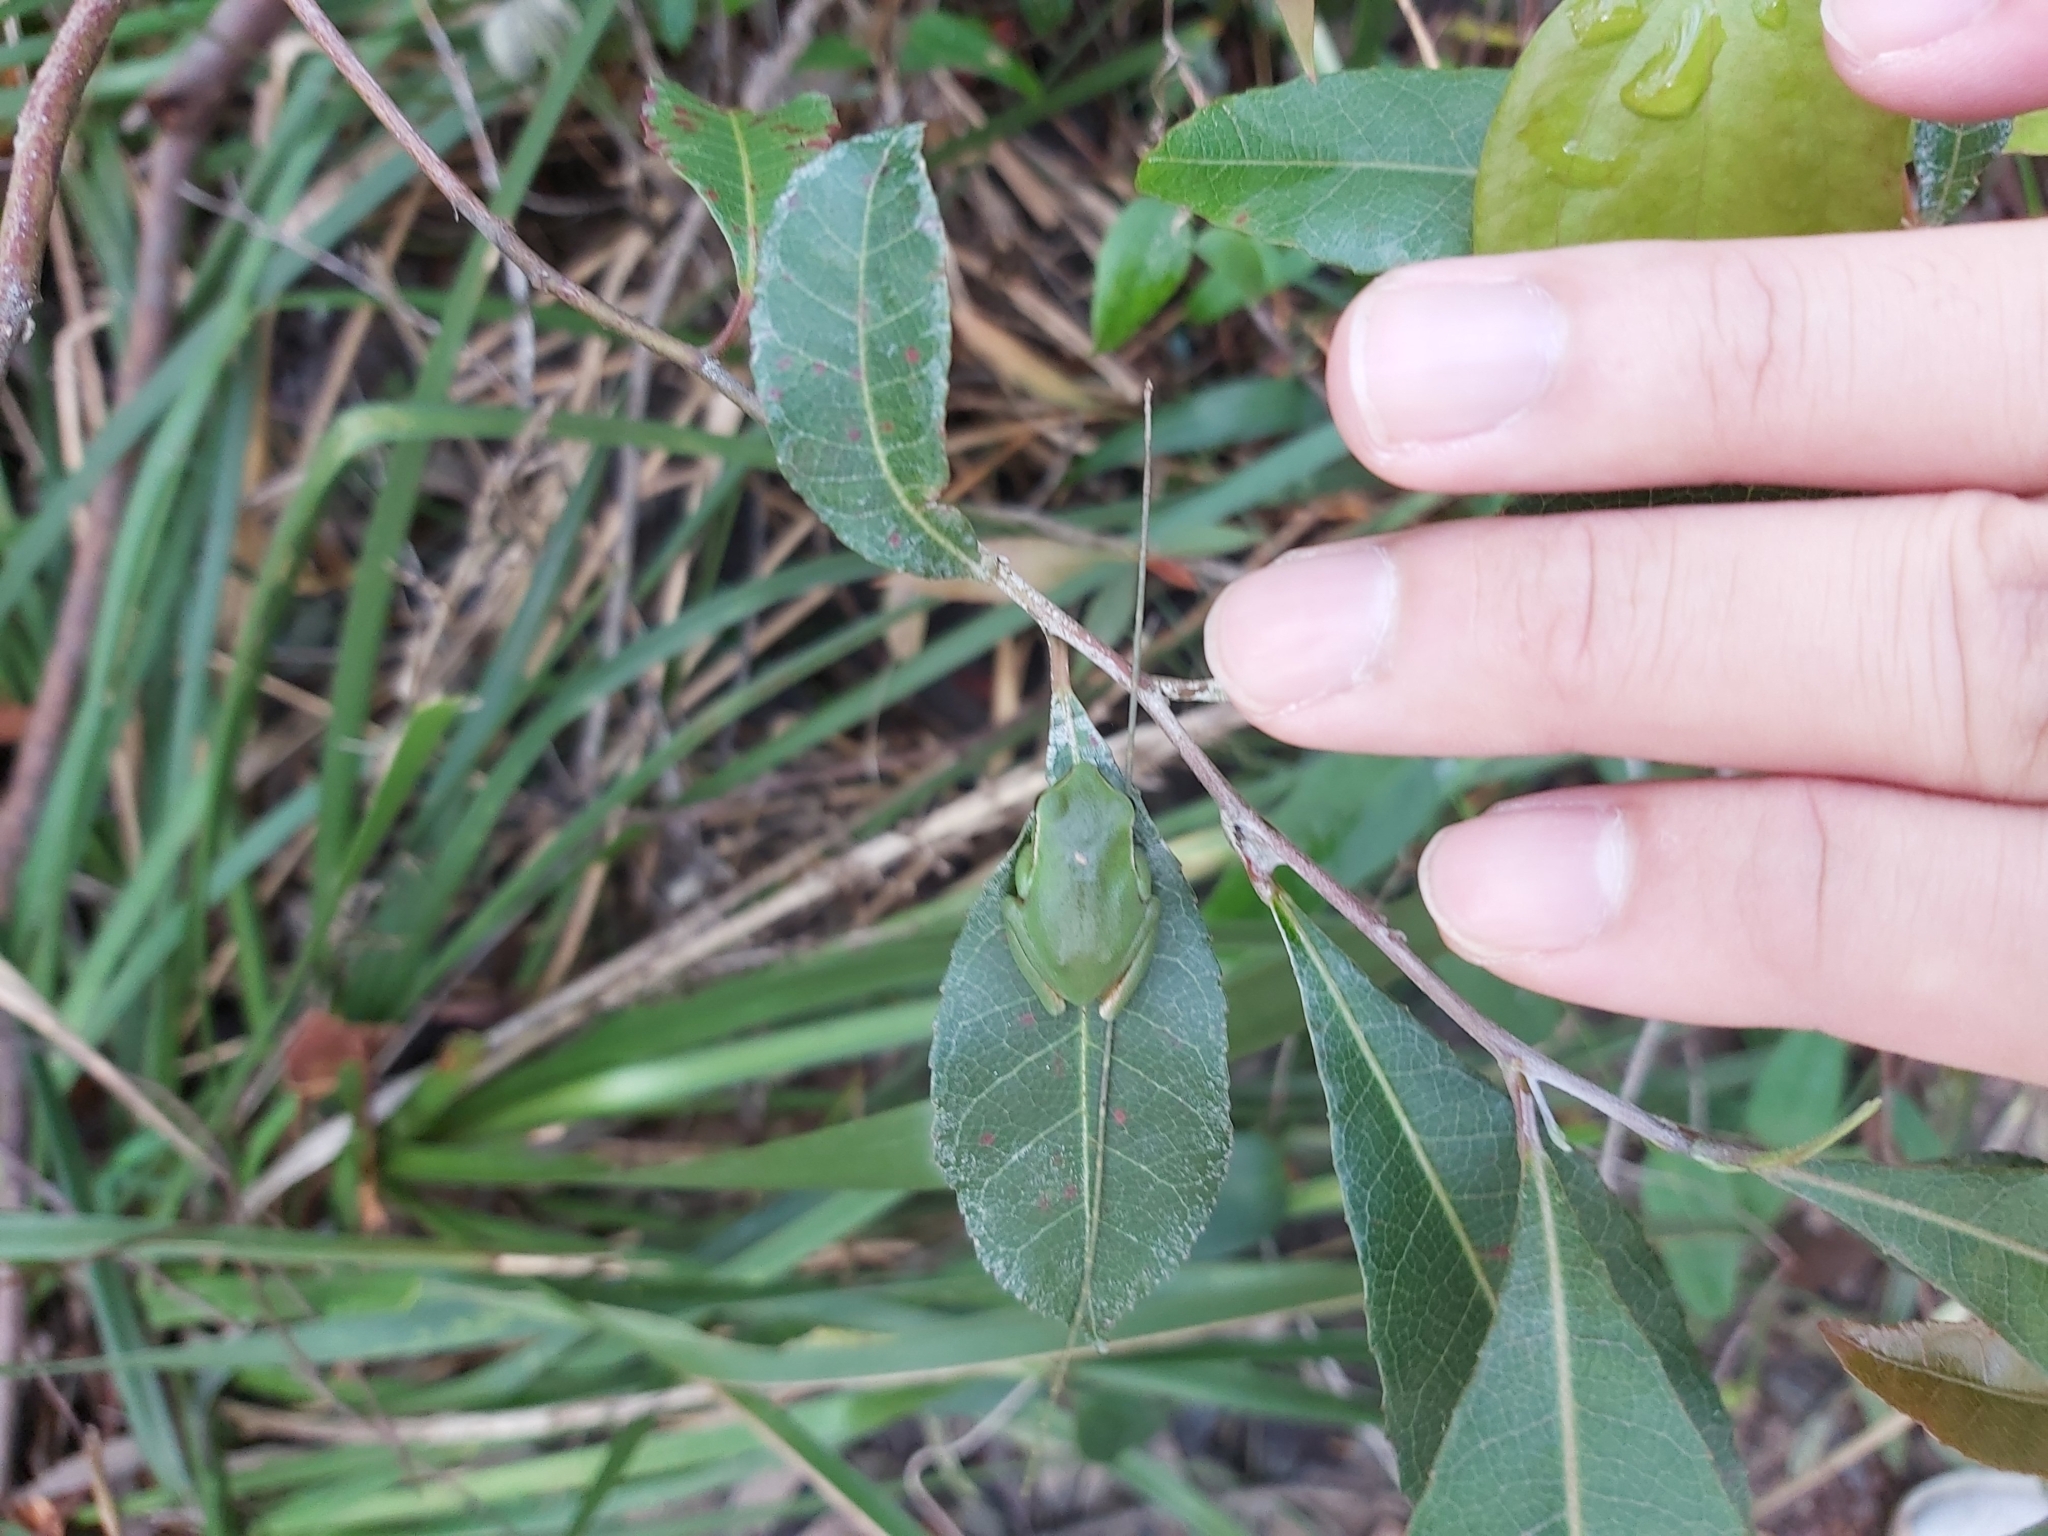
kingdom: Animalia
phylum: Chordata
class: Amphibia
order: Anura
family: Pelodryadidae
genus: Ranoidea
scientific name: Ranoidea phyllochroa
